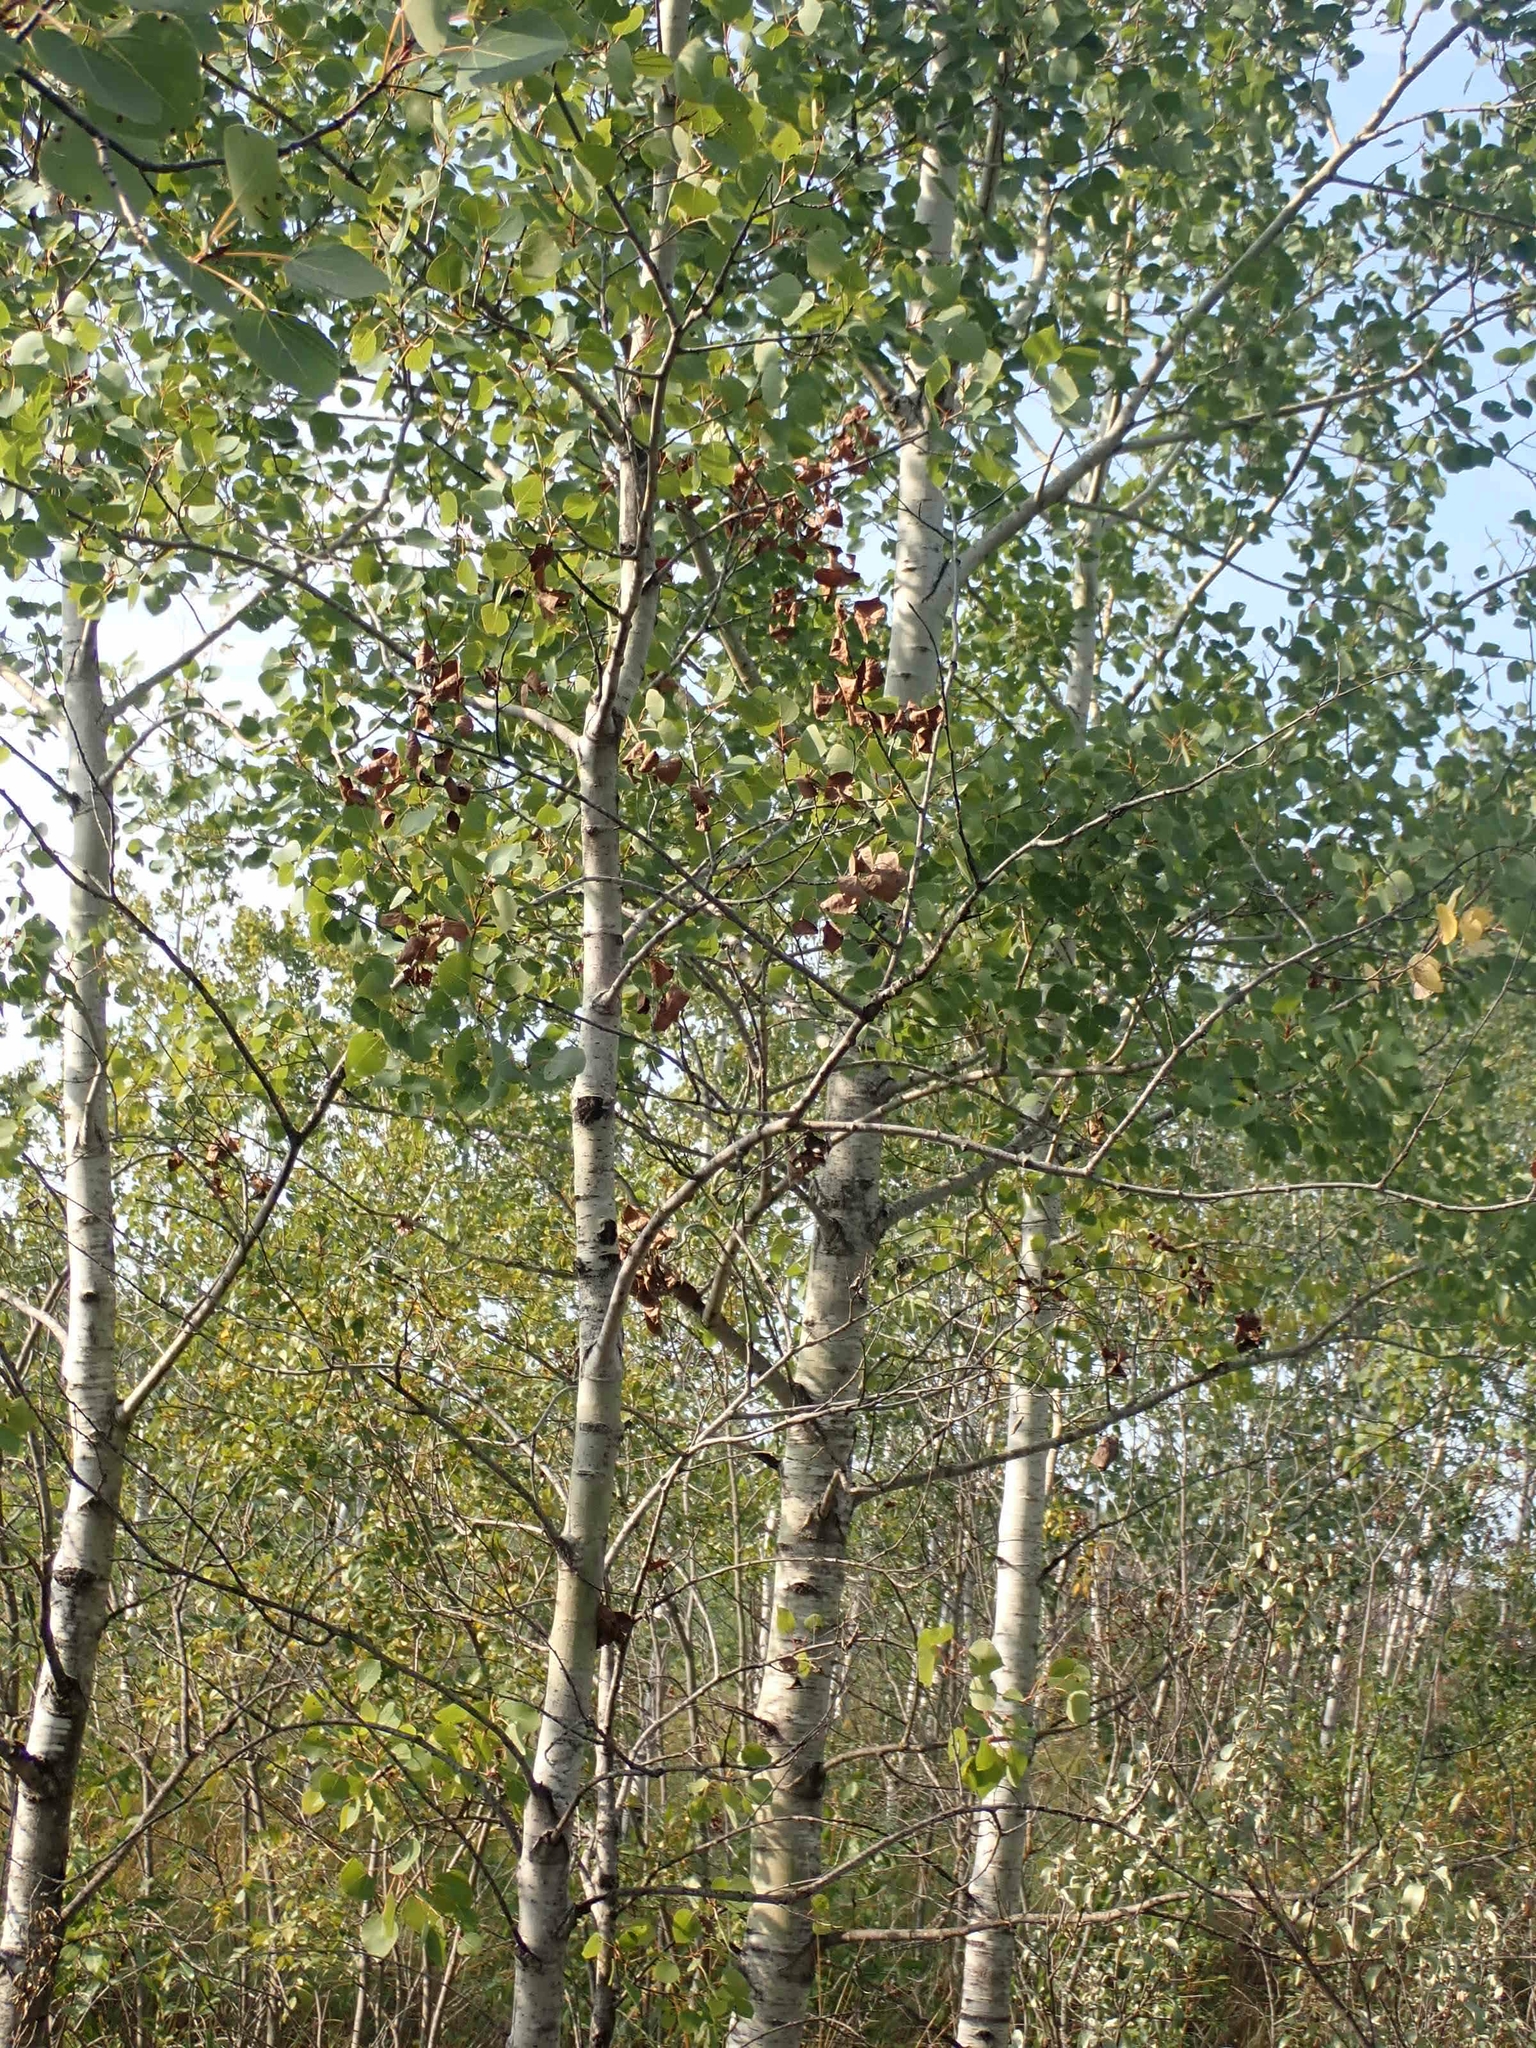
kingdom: Plantae
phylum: Tracheophyta
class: Magnoliopsida
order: Malpighiales
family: Salicaceae
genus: Populus
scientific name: Populus tremuloides
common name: Quaking aspen
